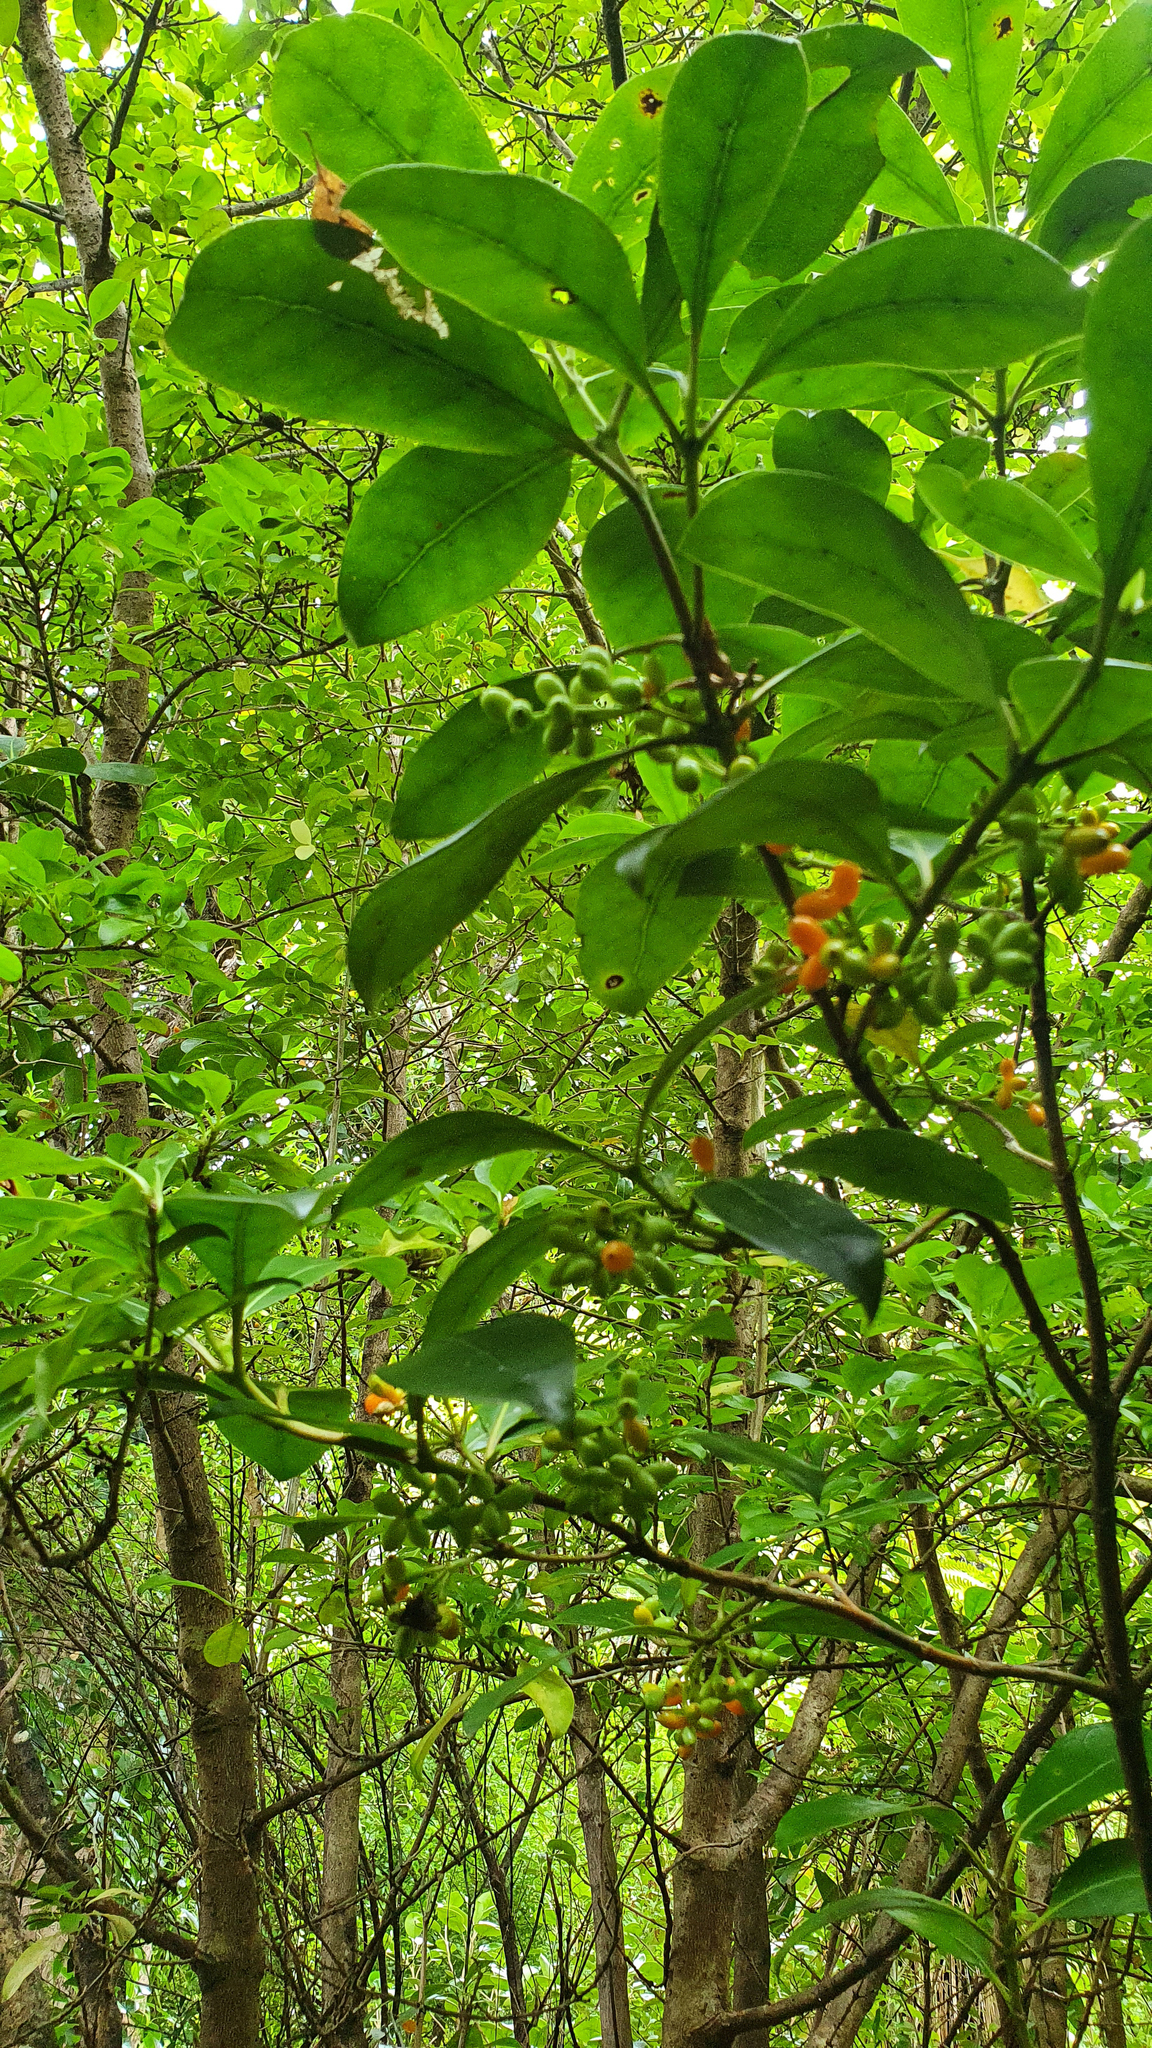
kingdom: Plantae
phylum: Tracheophyta
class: Magnoliopsida
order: Gentianales
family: Rubiaceae
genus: Coprosma
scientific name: Coprosma lucida
